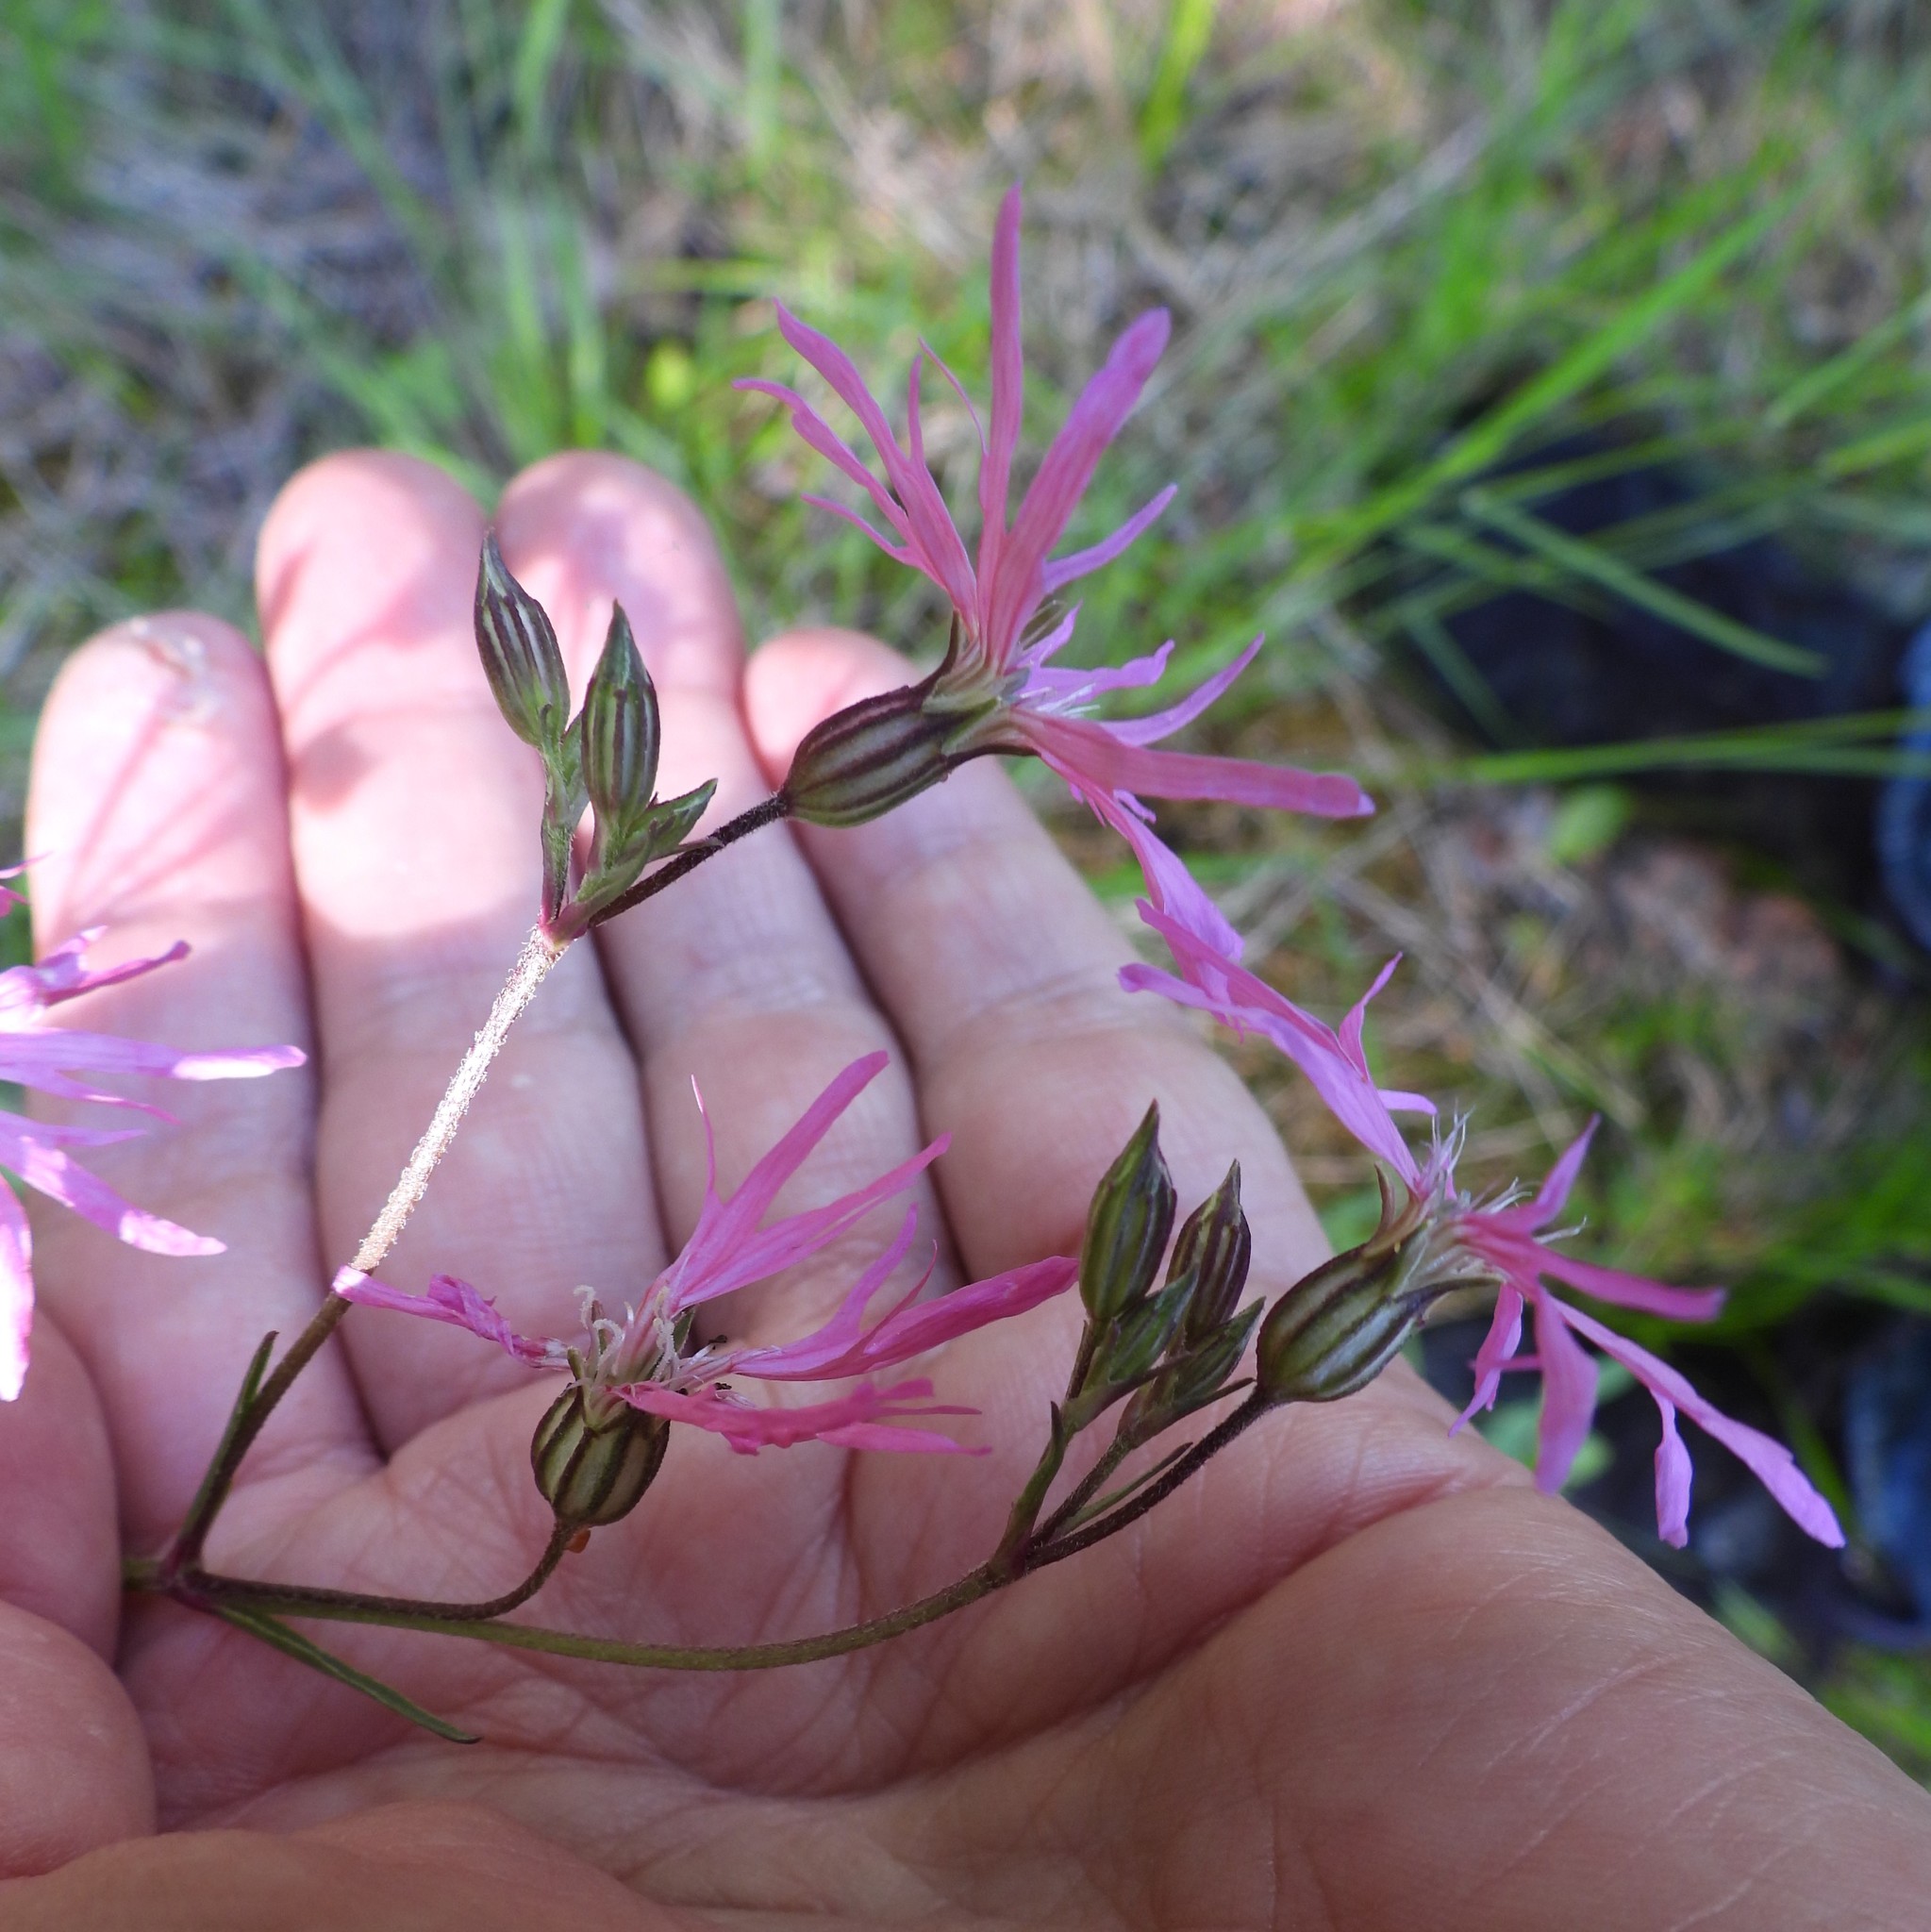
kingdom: Plantae
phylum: Tracheophyta
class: Magnoliopsida
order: Caryophyllales
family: Caryophyllaceae
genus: Silene
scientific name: Silene flos-cuculi
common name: Ragged-robin
